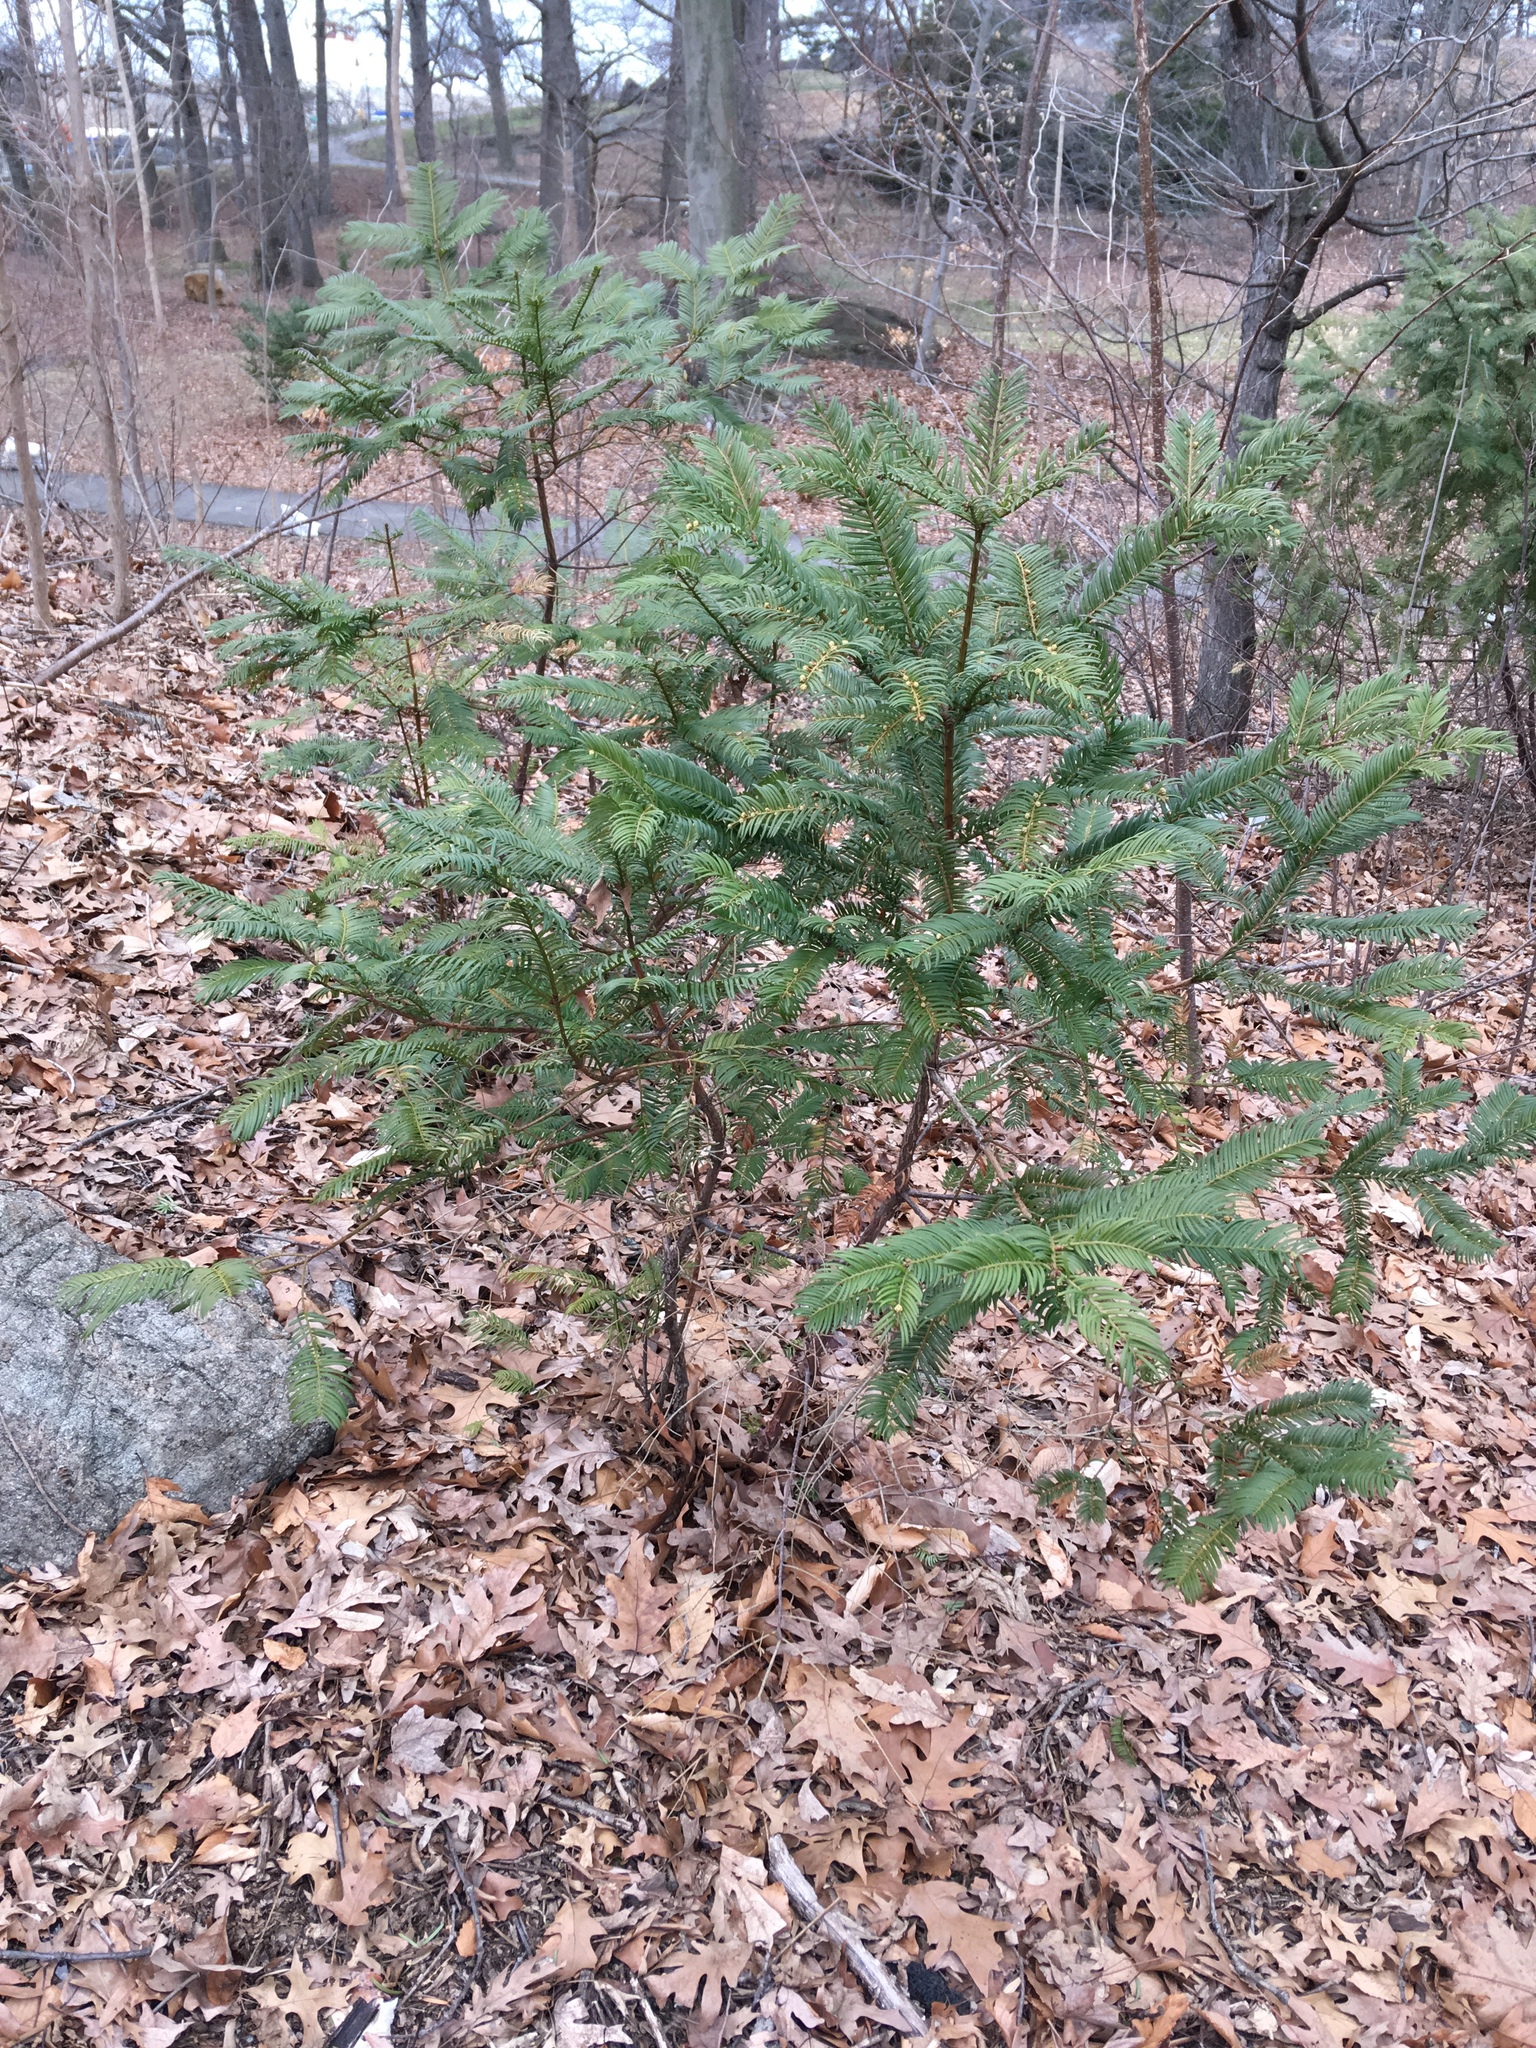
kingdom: Plantae
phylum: Tracheophyta
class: Pinopsida
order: Pinales
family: Cephalotaxaceae
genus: Cephalotaxus
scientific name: Cephalotaxus harringtonia
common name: Japanese plum-yew
